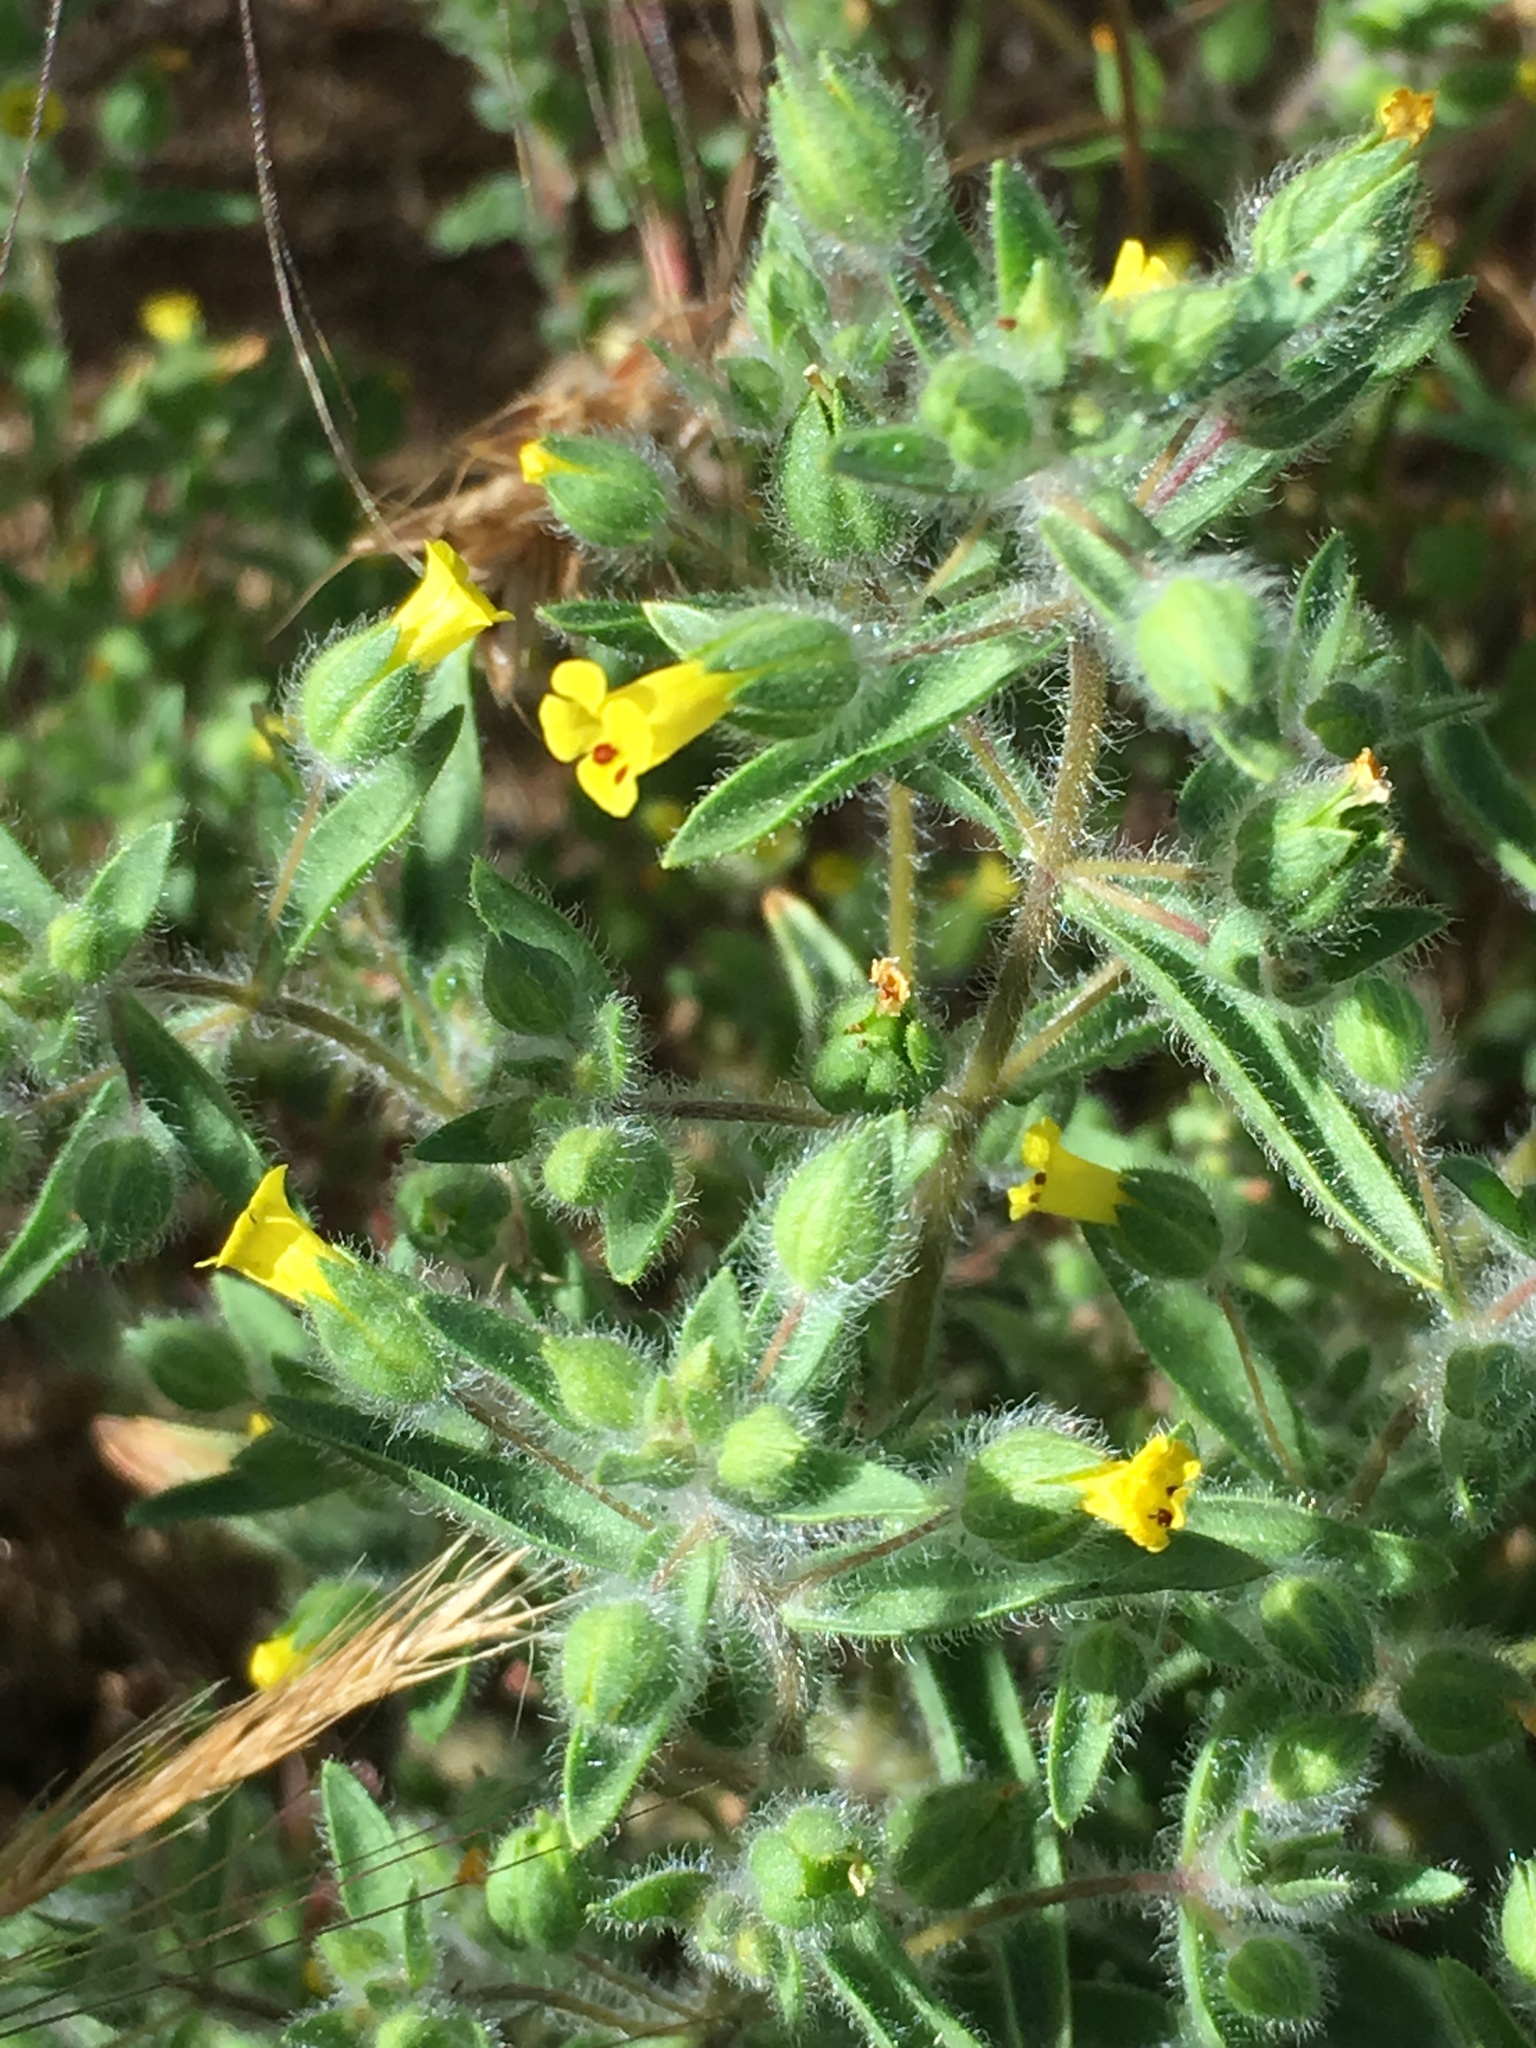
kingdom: Plantae
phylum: Tracheophyta
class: Magnoliopsida
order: Lamiales
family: Phrymaceae
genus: Mimetanthe
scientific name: Mimetanthe pilosa
